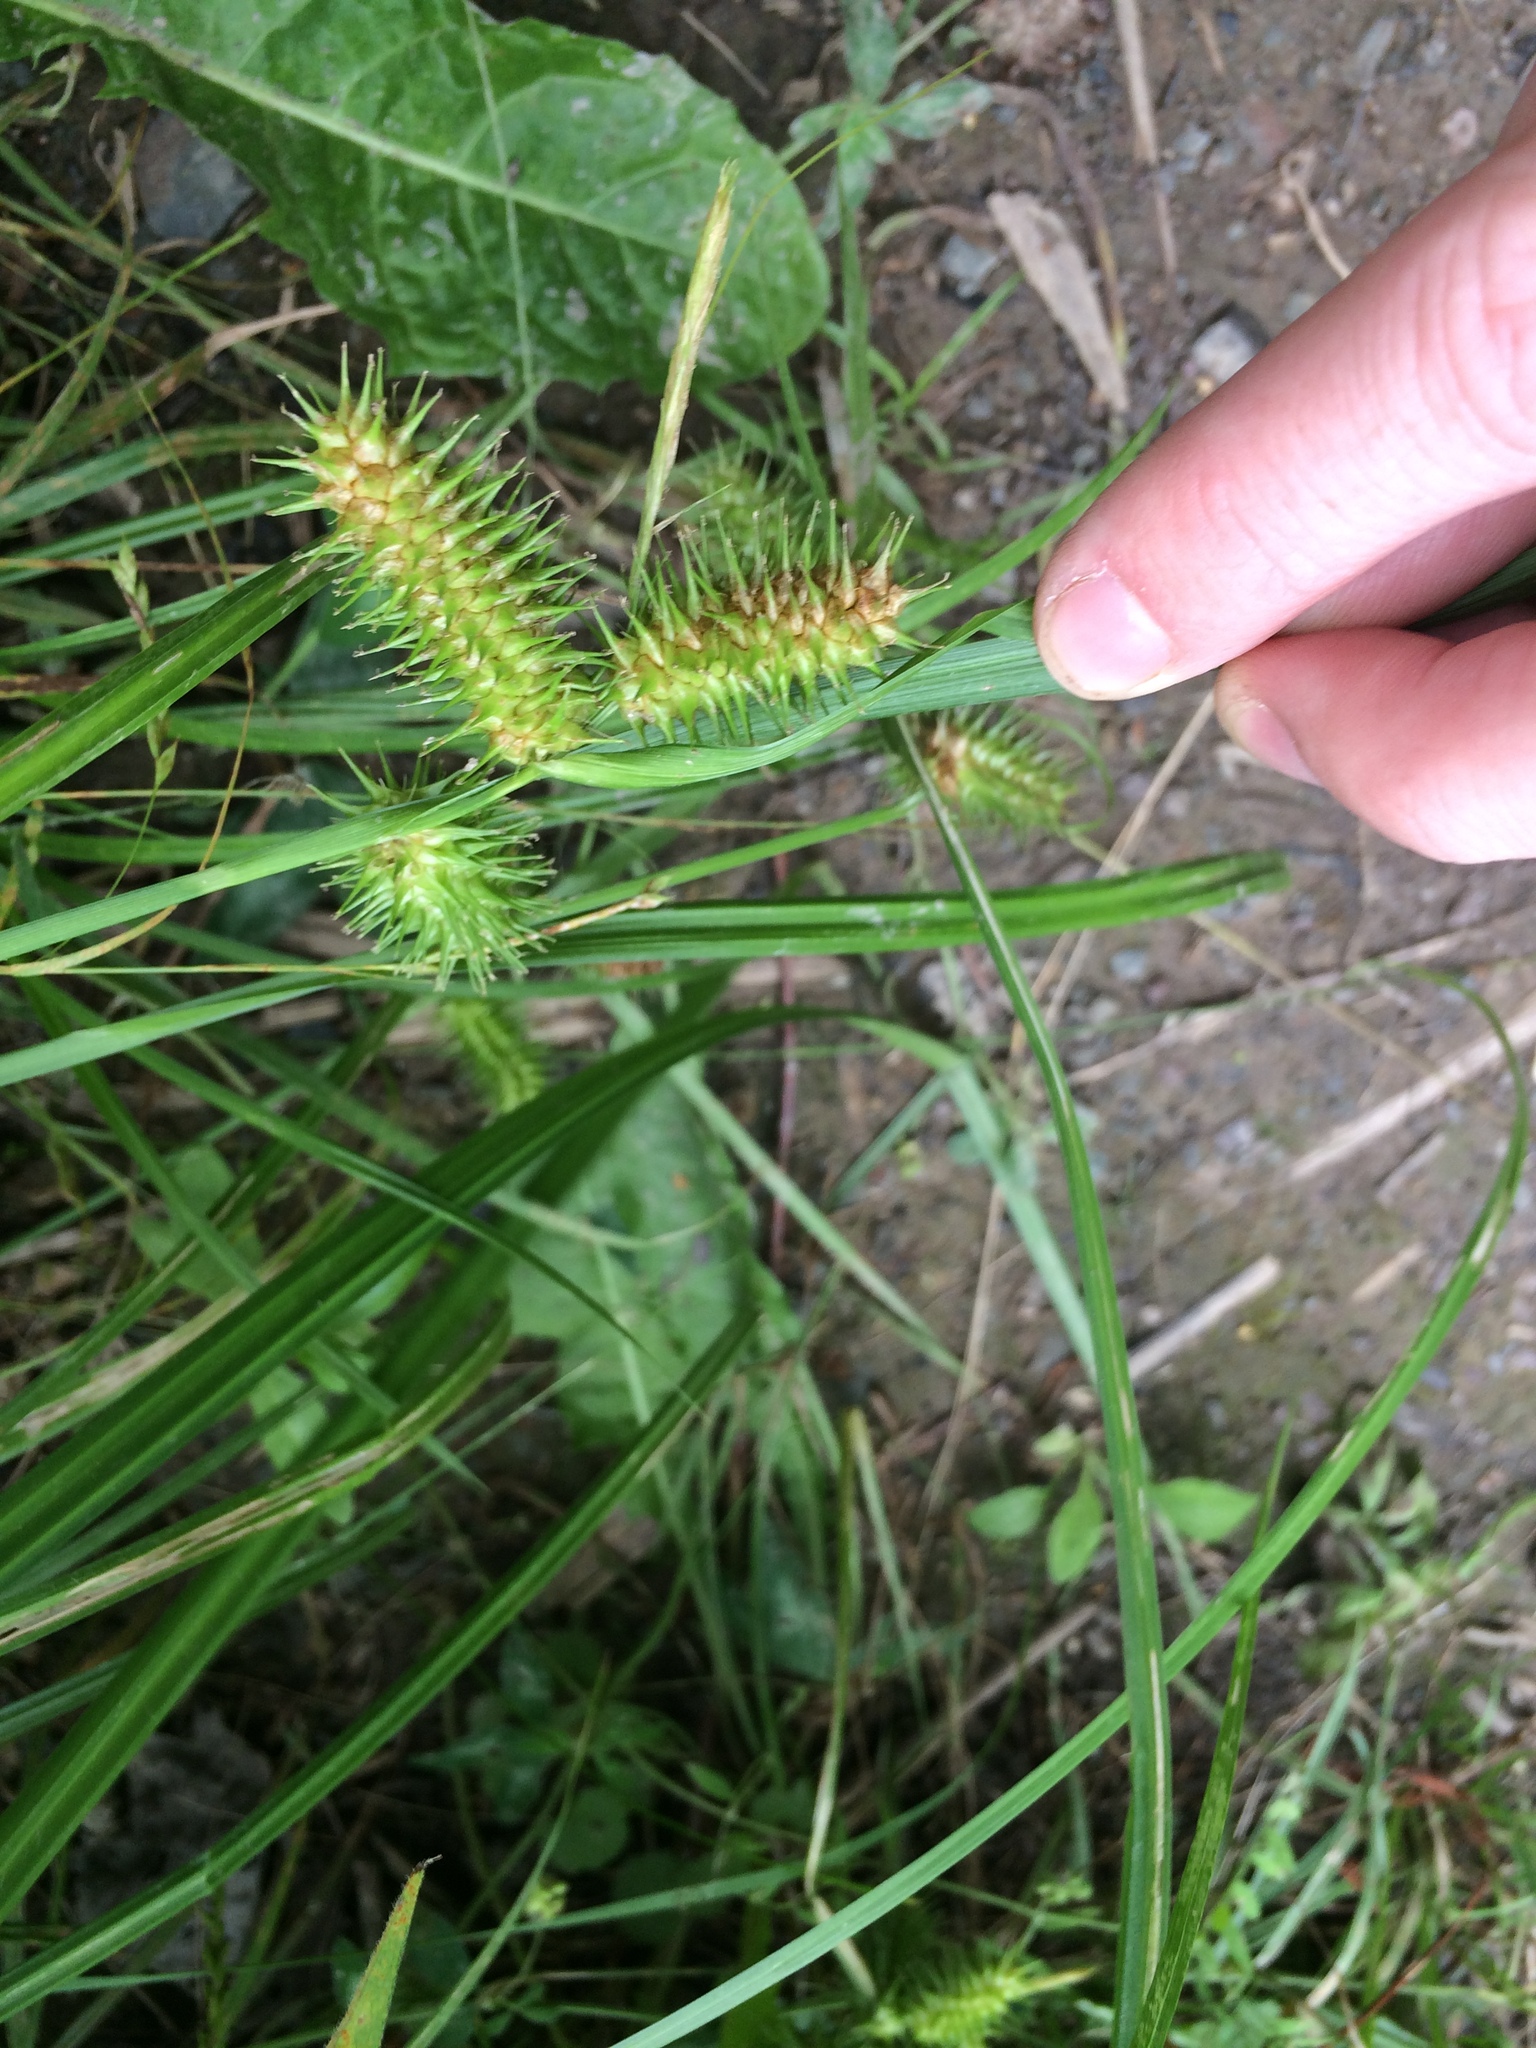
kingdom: Plantae
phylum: Tracheophyta
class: Liliopsida
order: Poales
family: Cyperaceae
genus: Carex
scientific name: Carex lurida
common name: Sallow sedge
